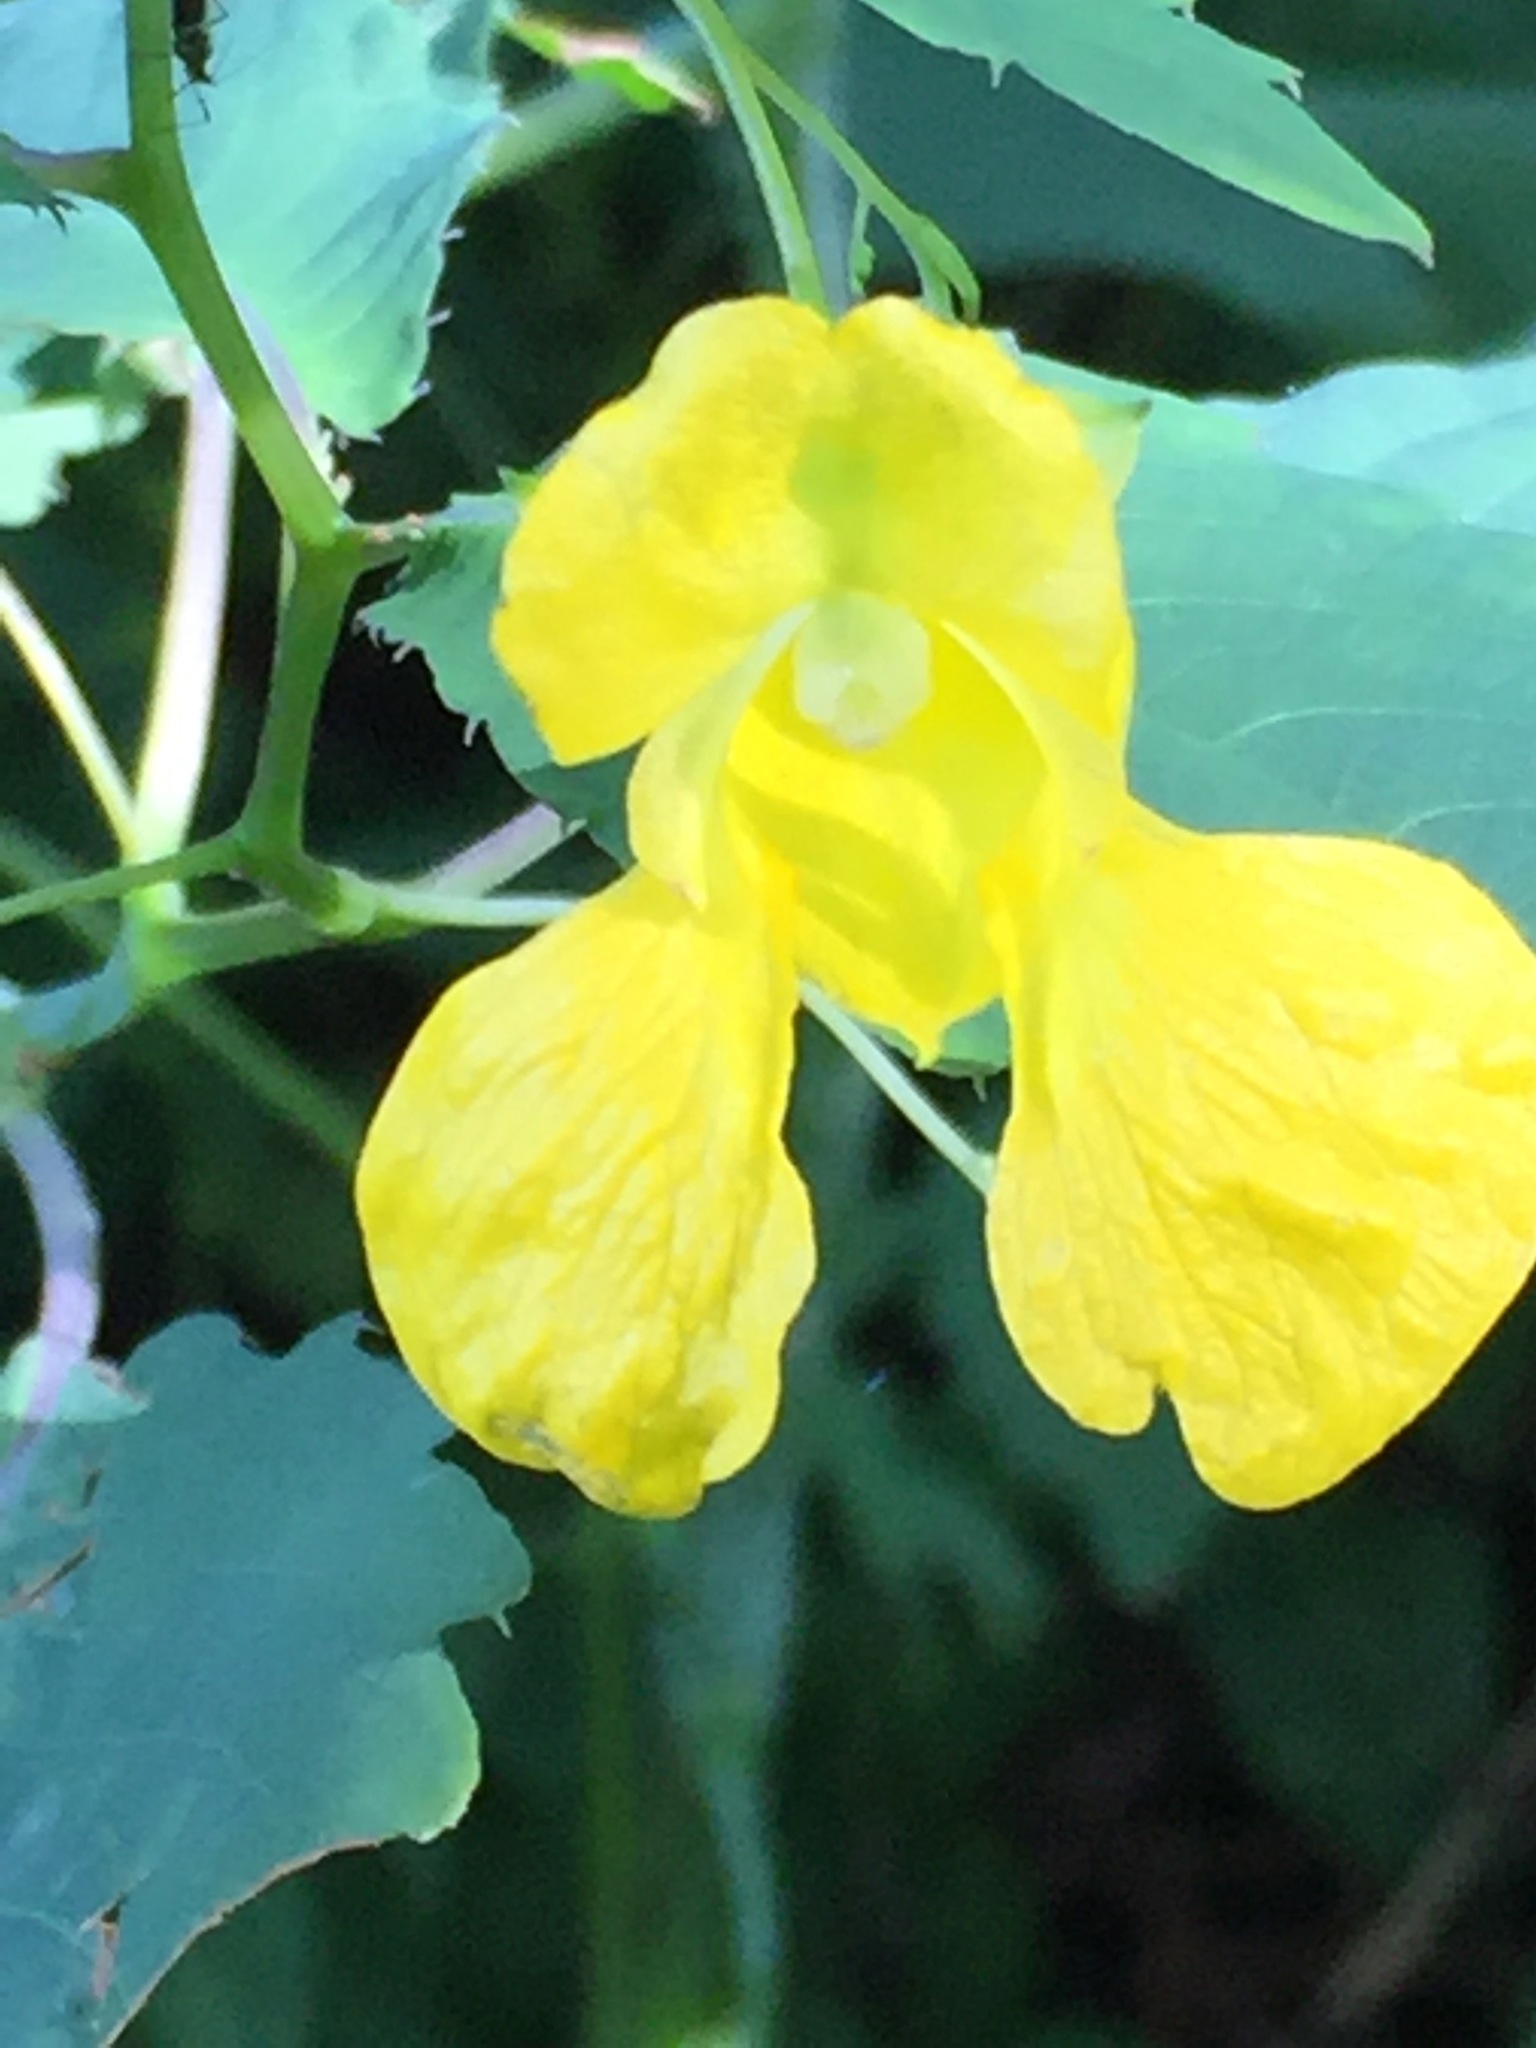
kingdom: Plantae
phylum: Tracheophyta
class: Magnoliopsida
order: Ericales
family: Balsaminaceae
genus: Impatiens
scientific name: Impatiens pallida
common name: Pale snapweed
